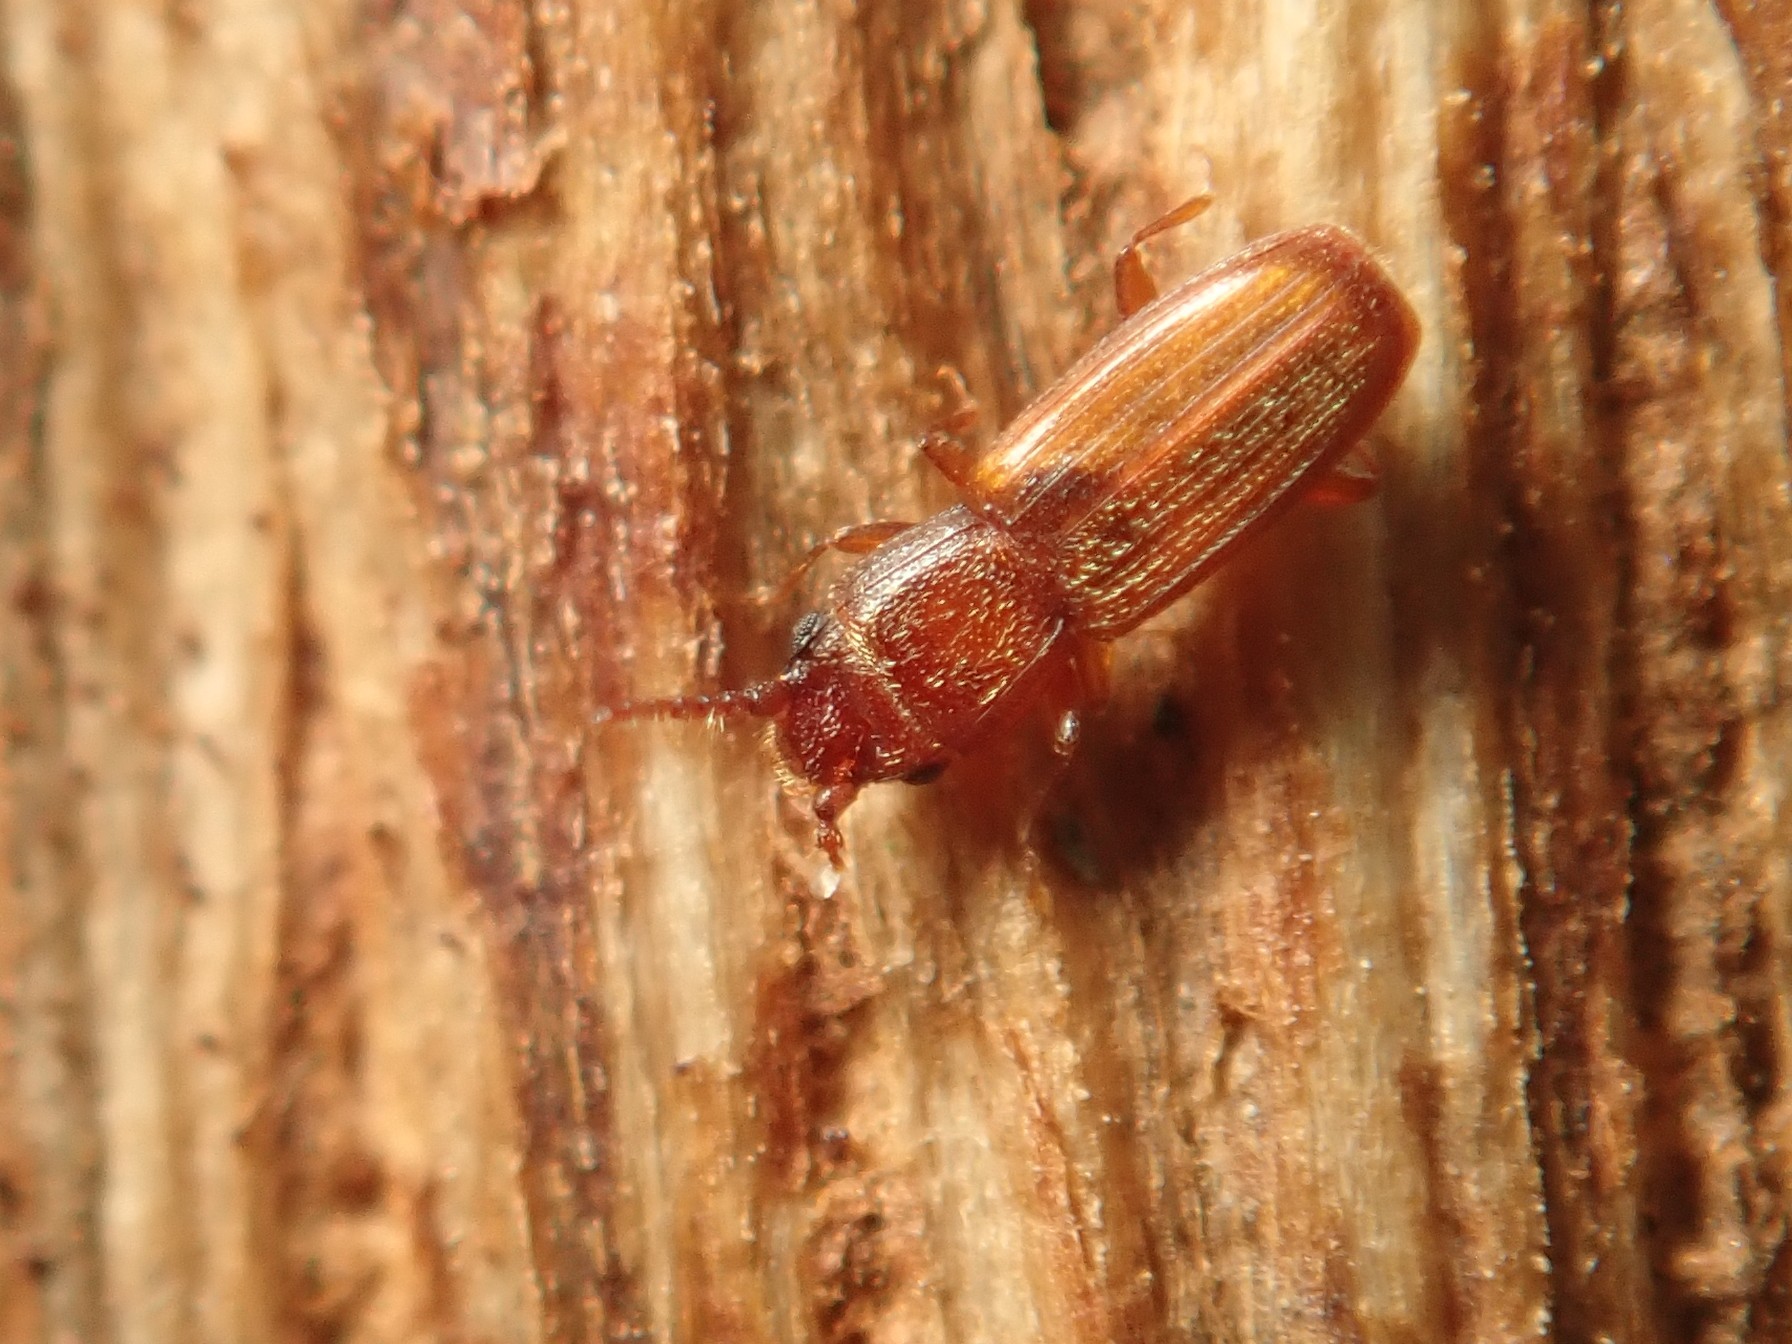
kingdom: Animalia
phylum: Arthropoda
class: Insecta
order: Coleoptera
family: Laemophloeidae
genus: Cryptolestes
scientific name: Cryptolestes duplicatus
